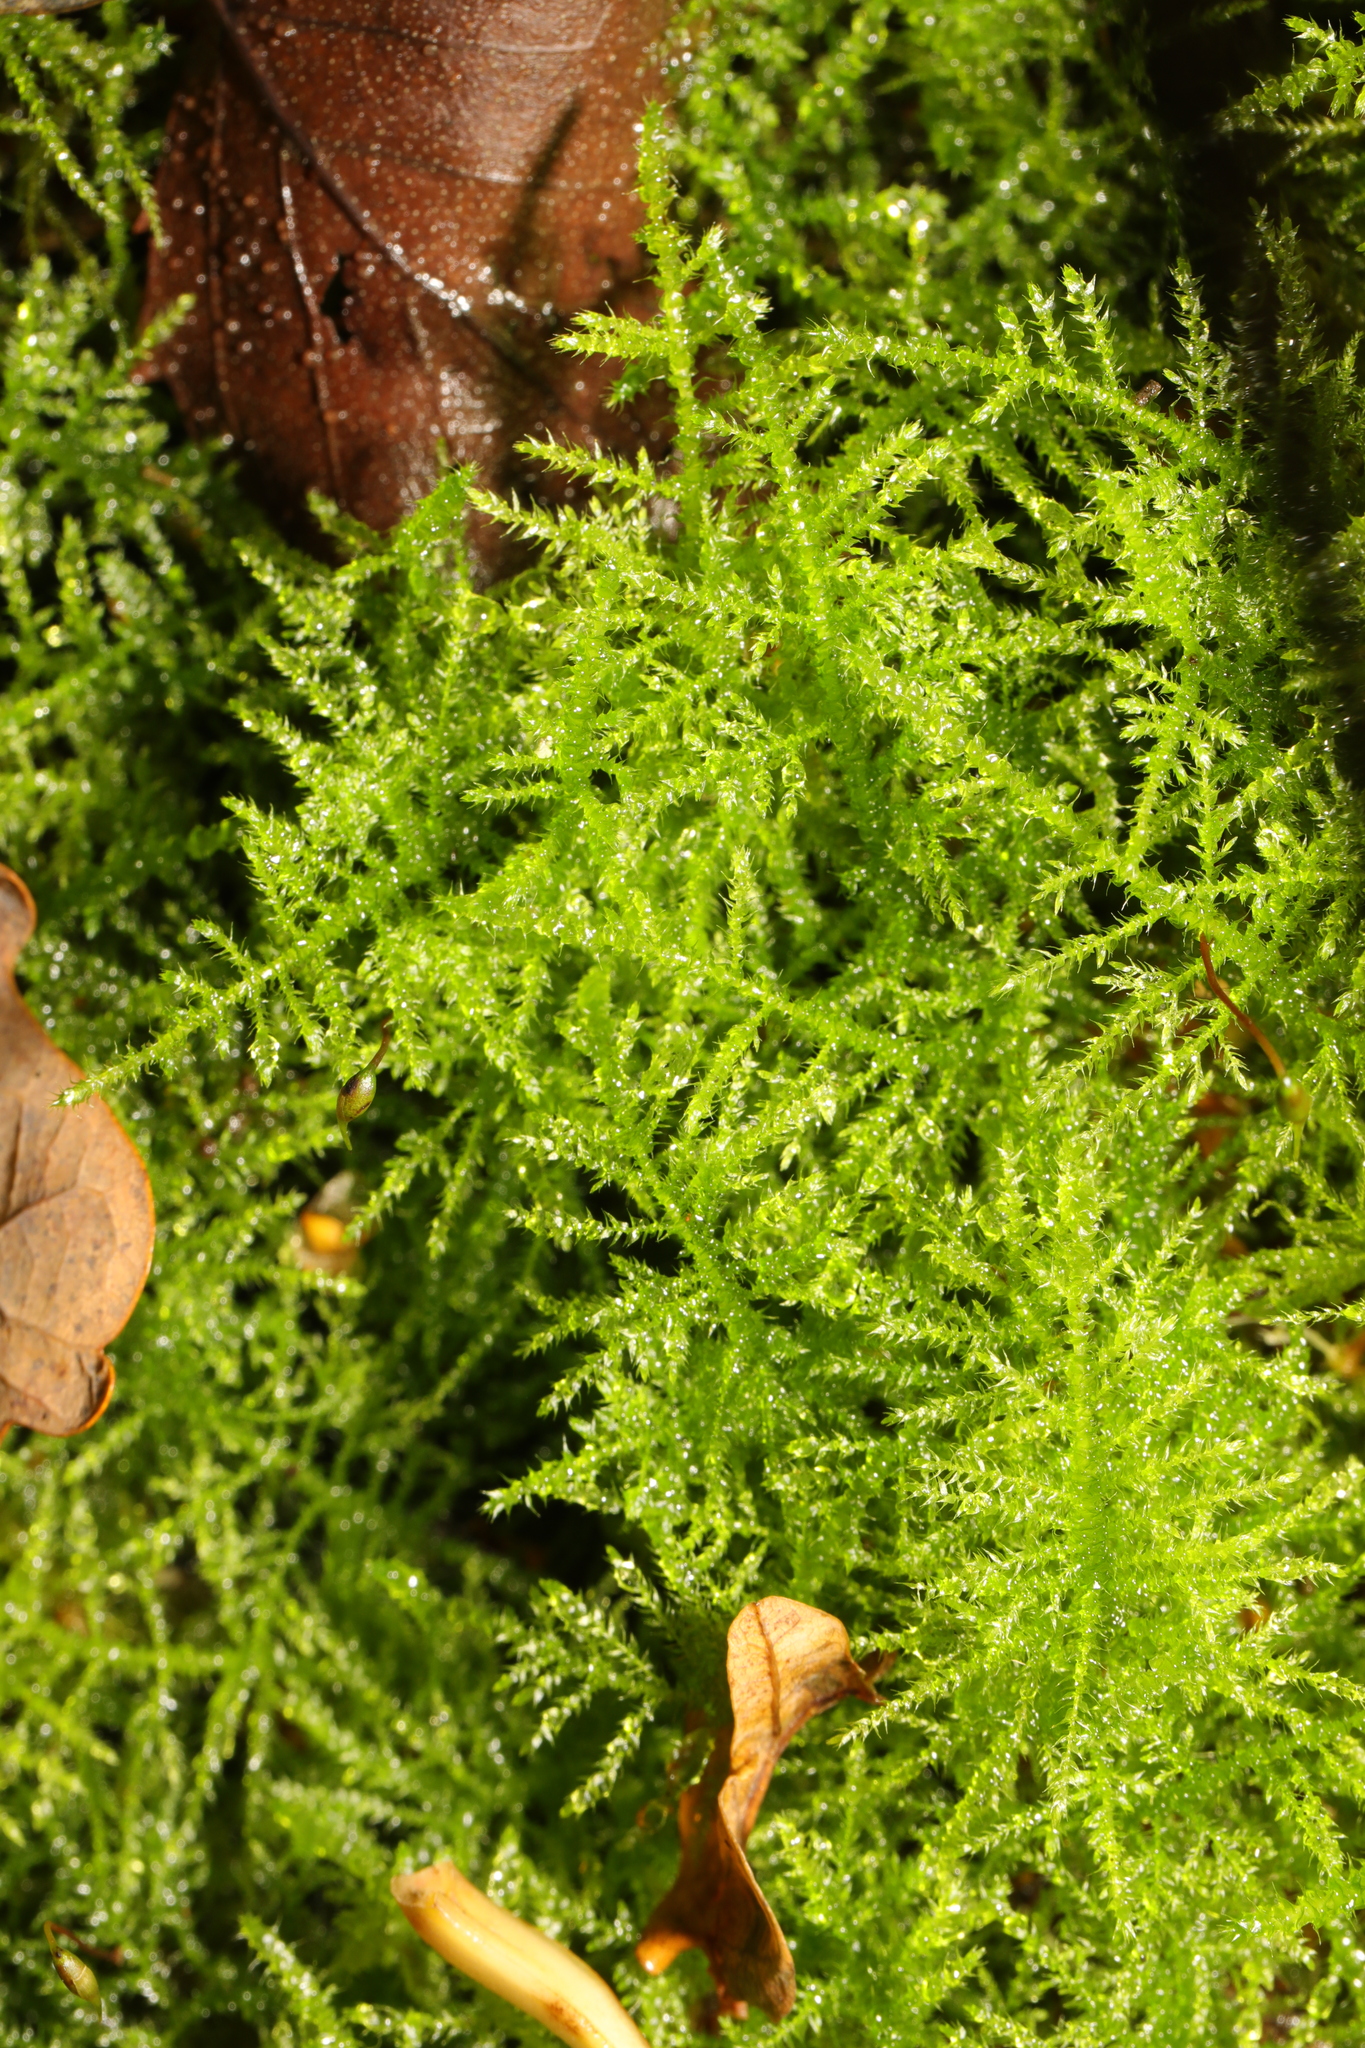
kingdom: Plantae
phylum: Bryophyta
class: Bryopsida
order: Hypnales
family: Brachytheciaceae
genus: Kindbergia
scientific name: Kindbergia praelonga
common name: Slender beaked moss
